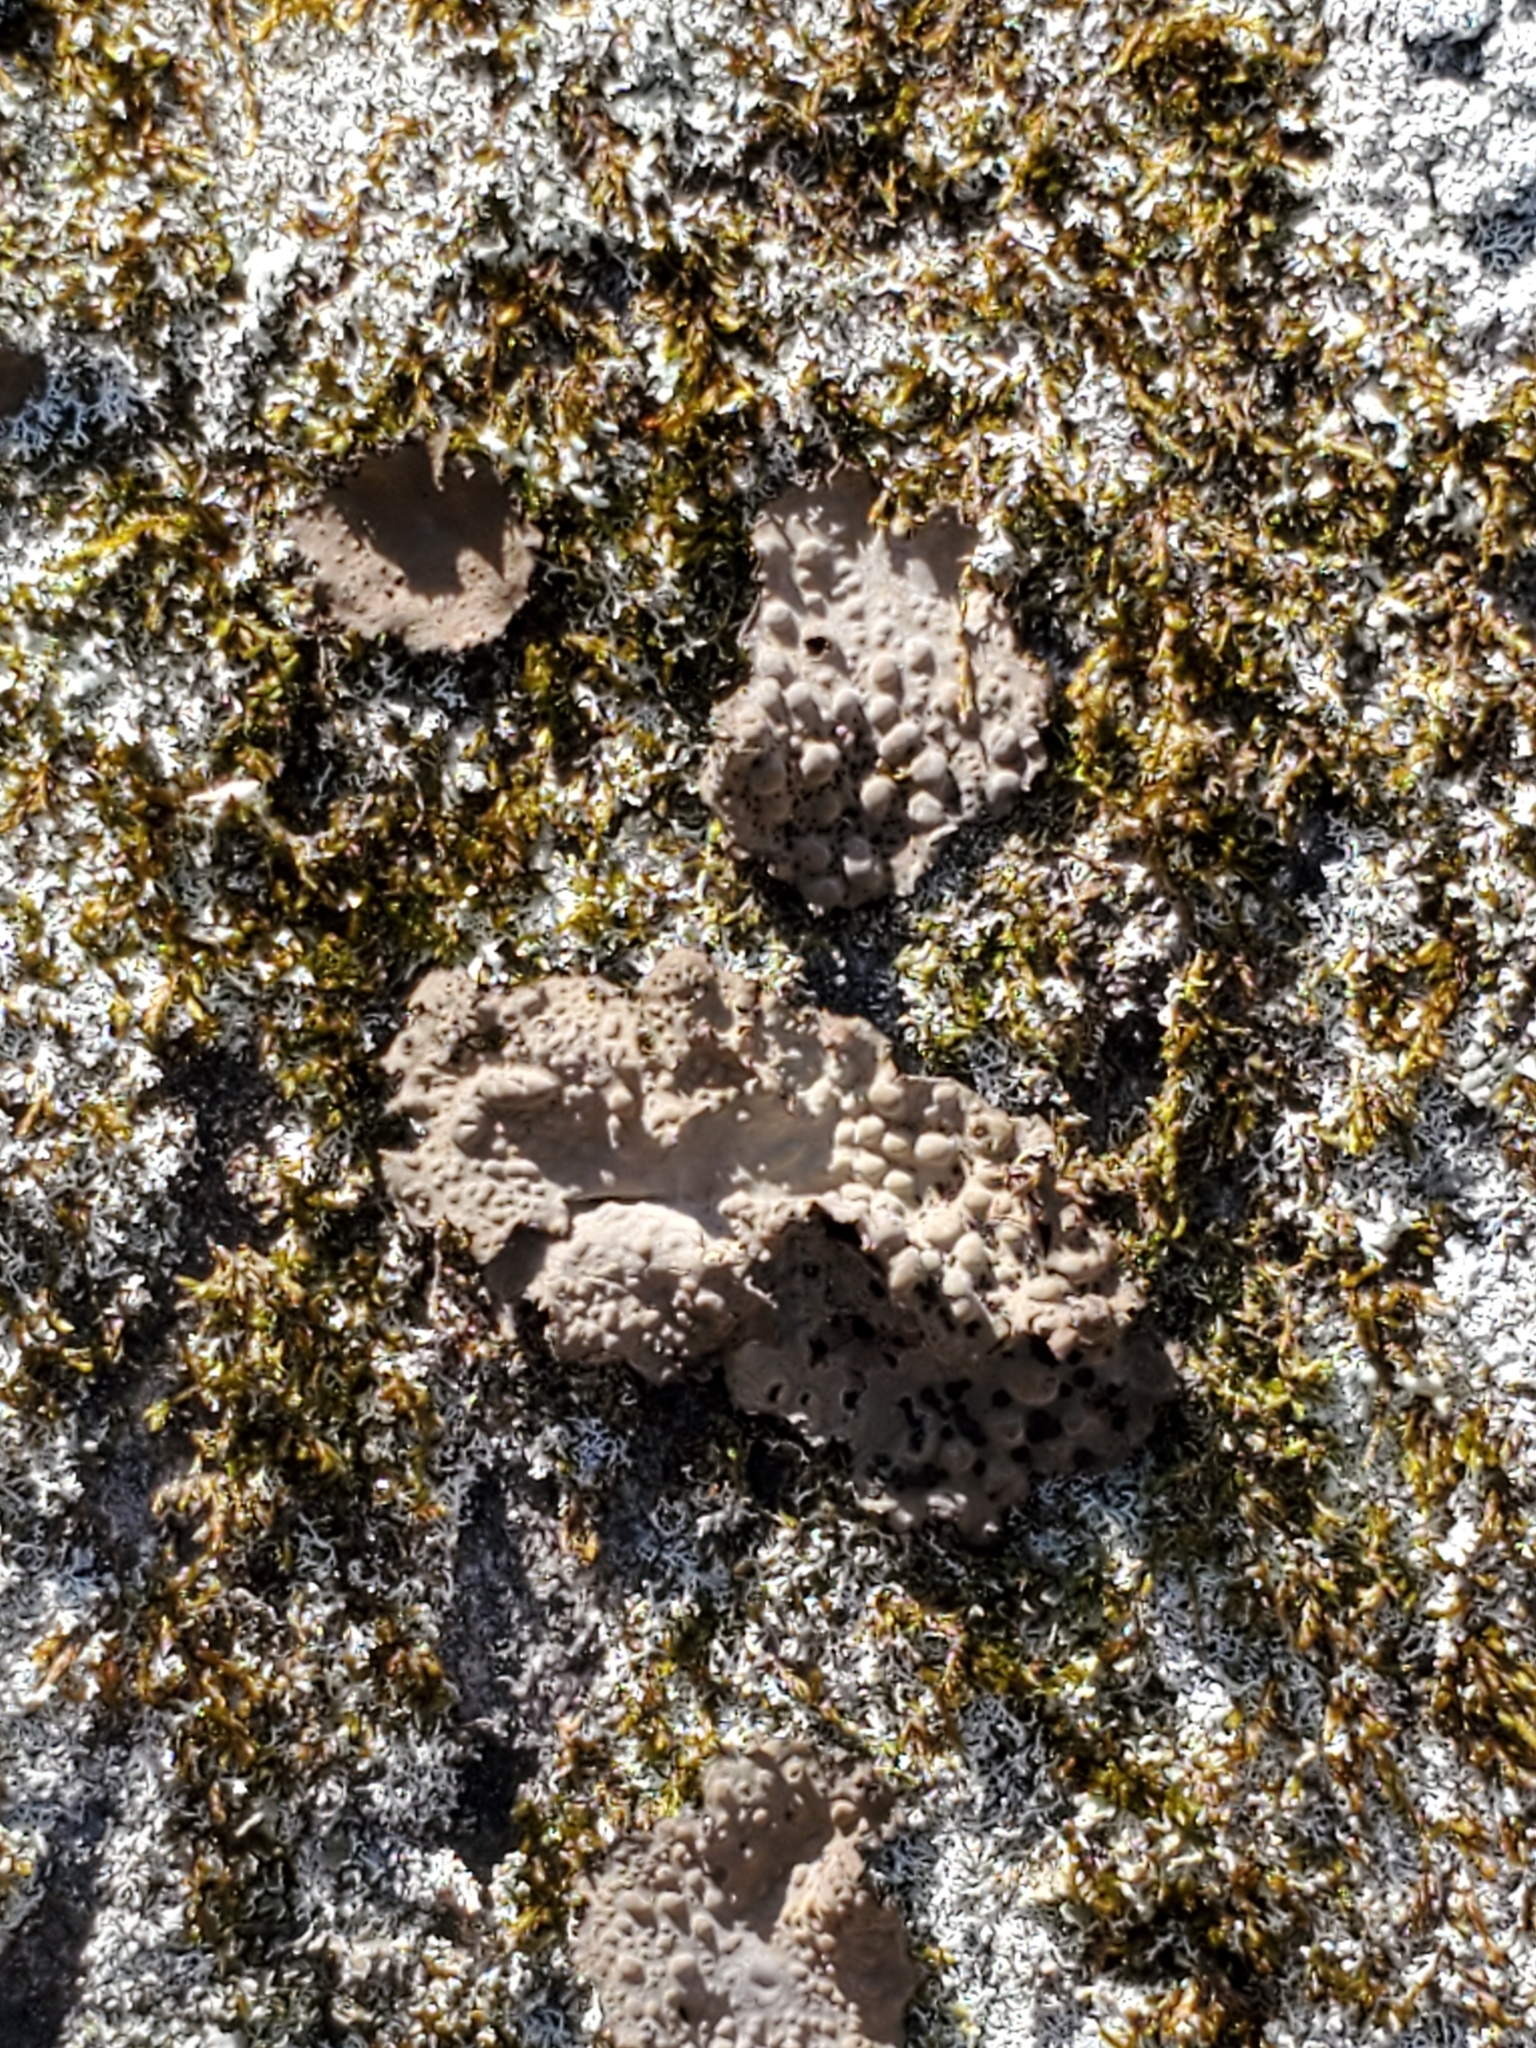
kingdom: Fungi
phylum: Ascomycota
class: Lecanoromycetes
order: Umbilicariales
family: Umbilicariaceae
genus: Lasallia
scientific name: Lasallia papulosa
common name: Common toadskin lichen
